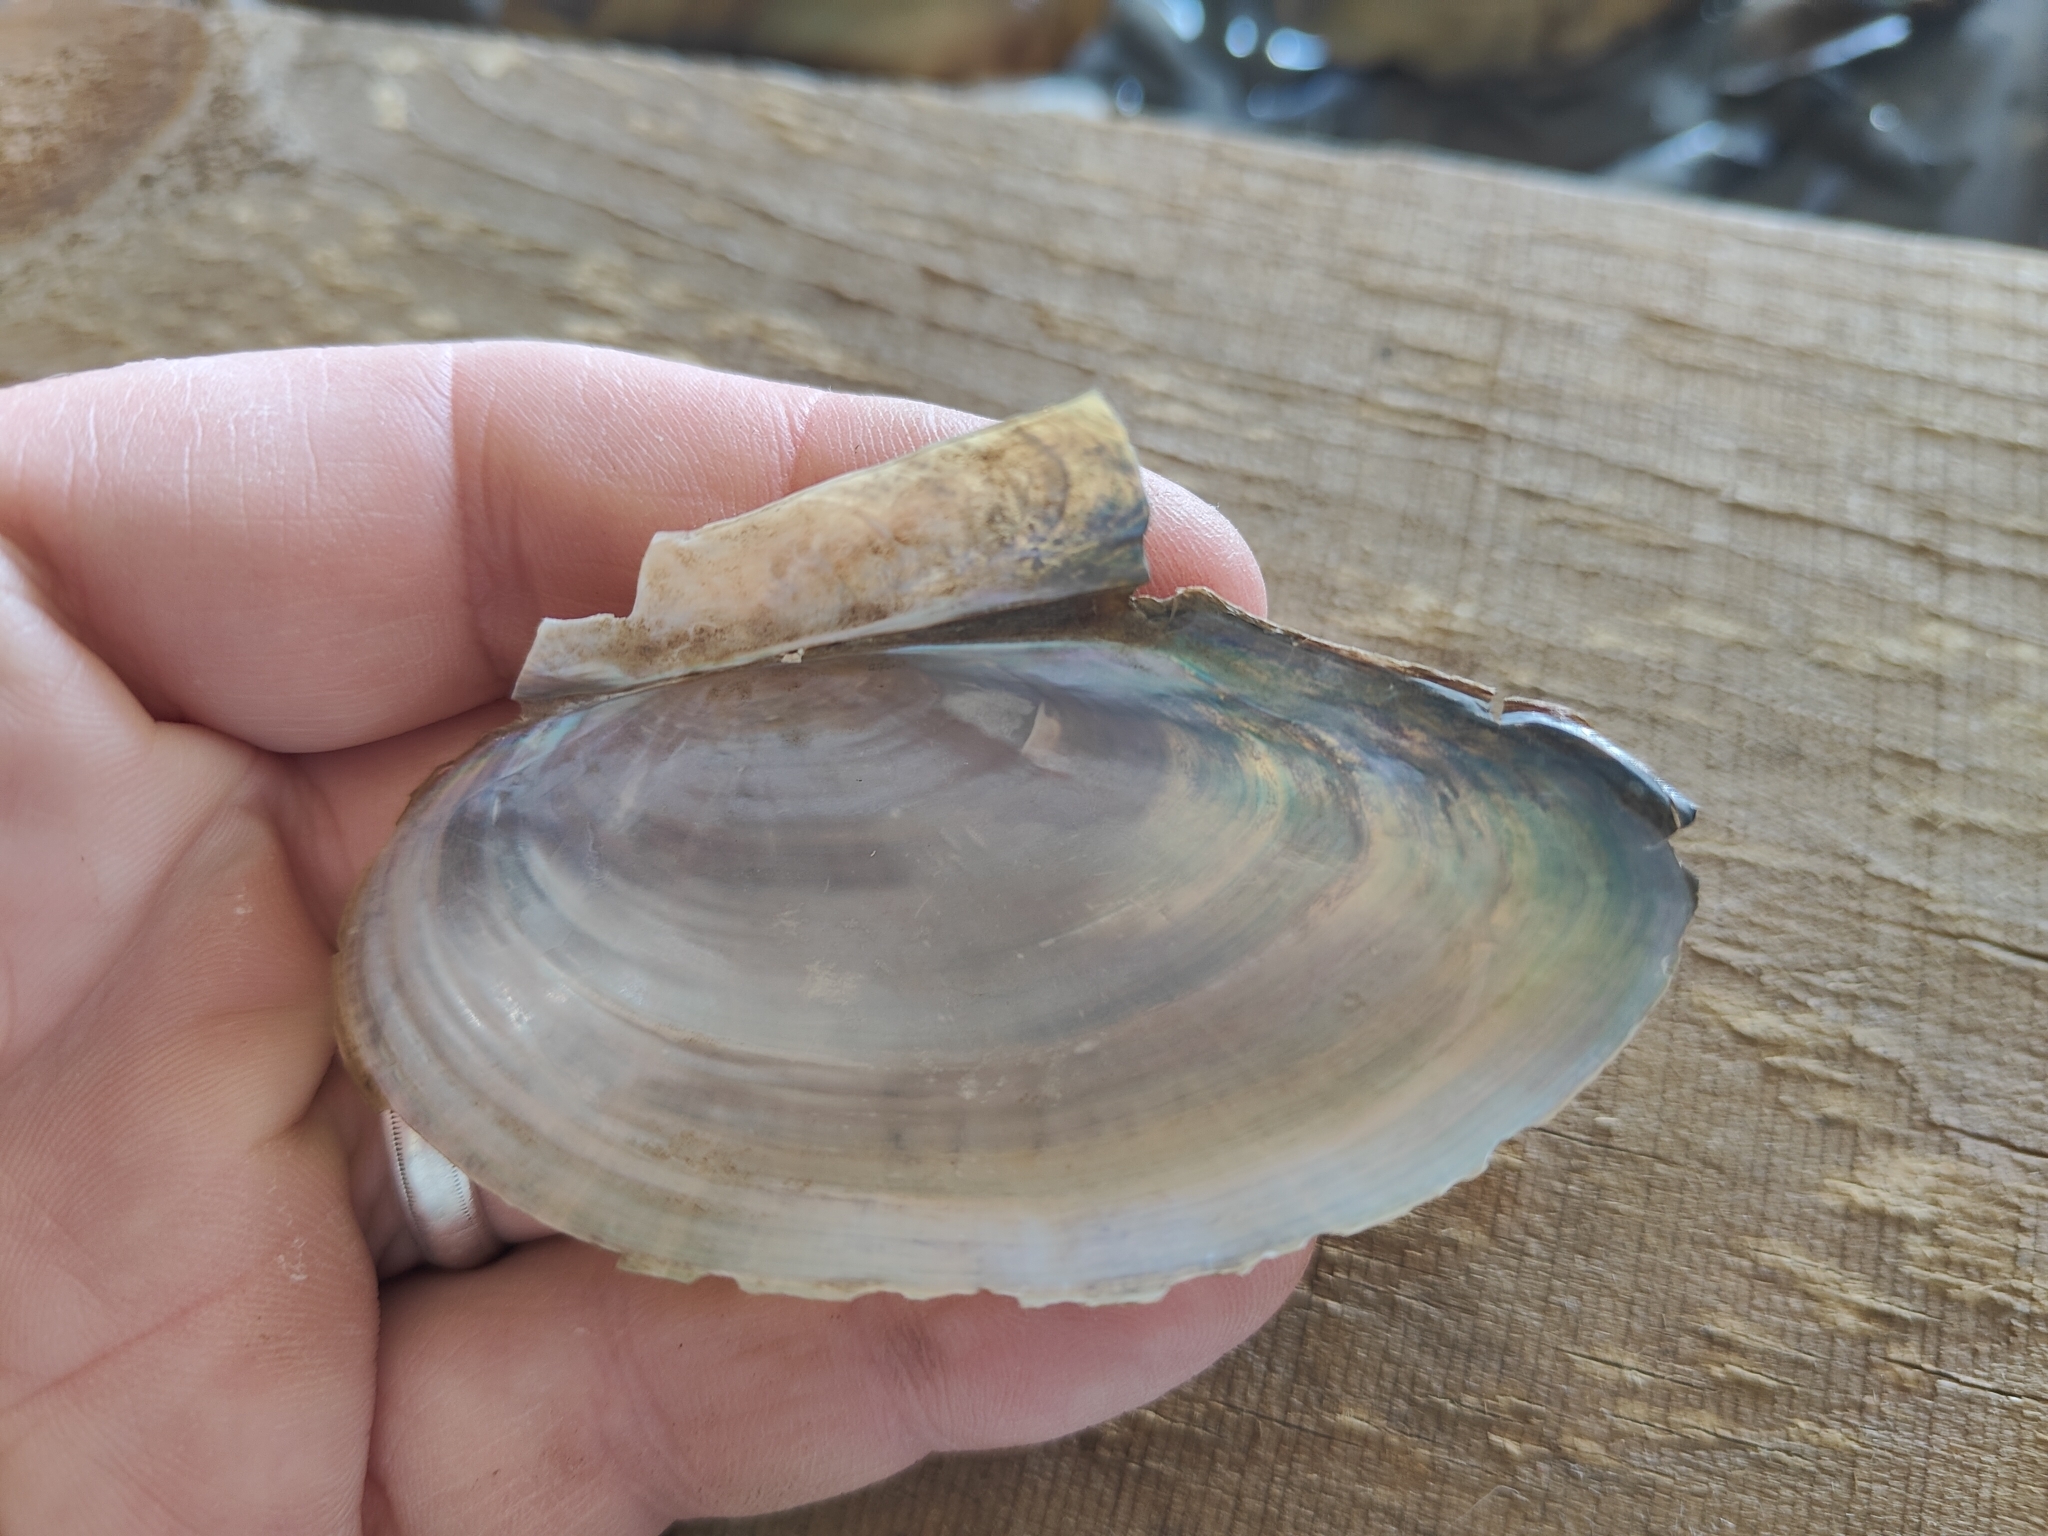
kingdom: Animalia
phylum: Mollusca
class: Bivalvia
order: Unionida
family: Unionidae
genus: Utterbackia
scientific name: Utterbackia imbecillis
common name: Paper pondshell
